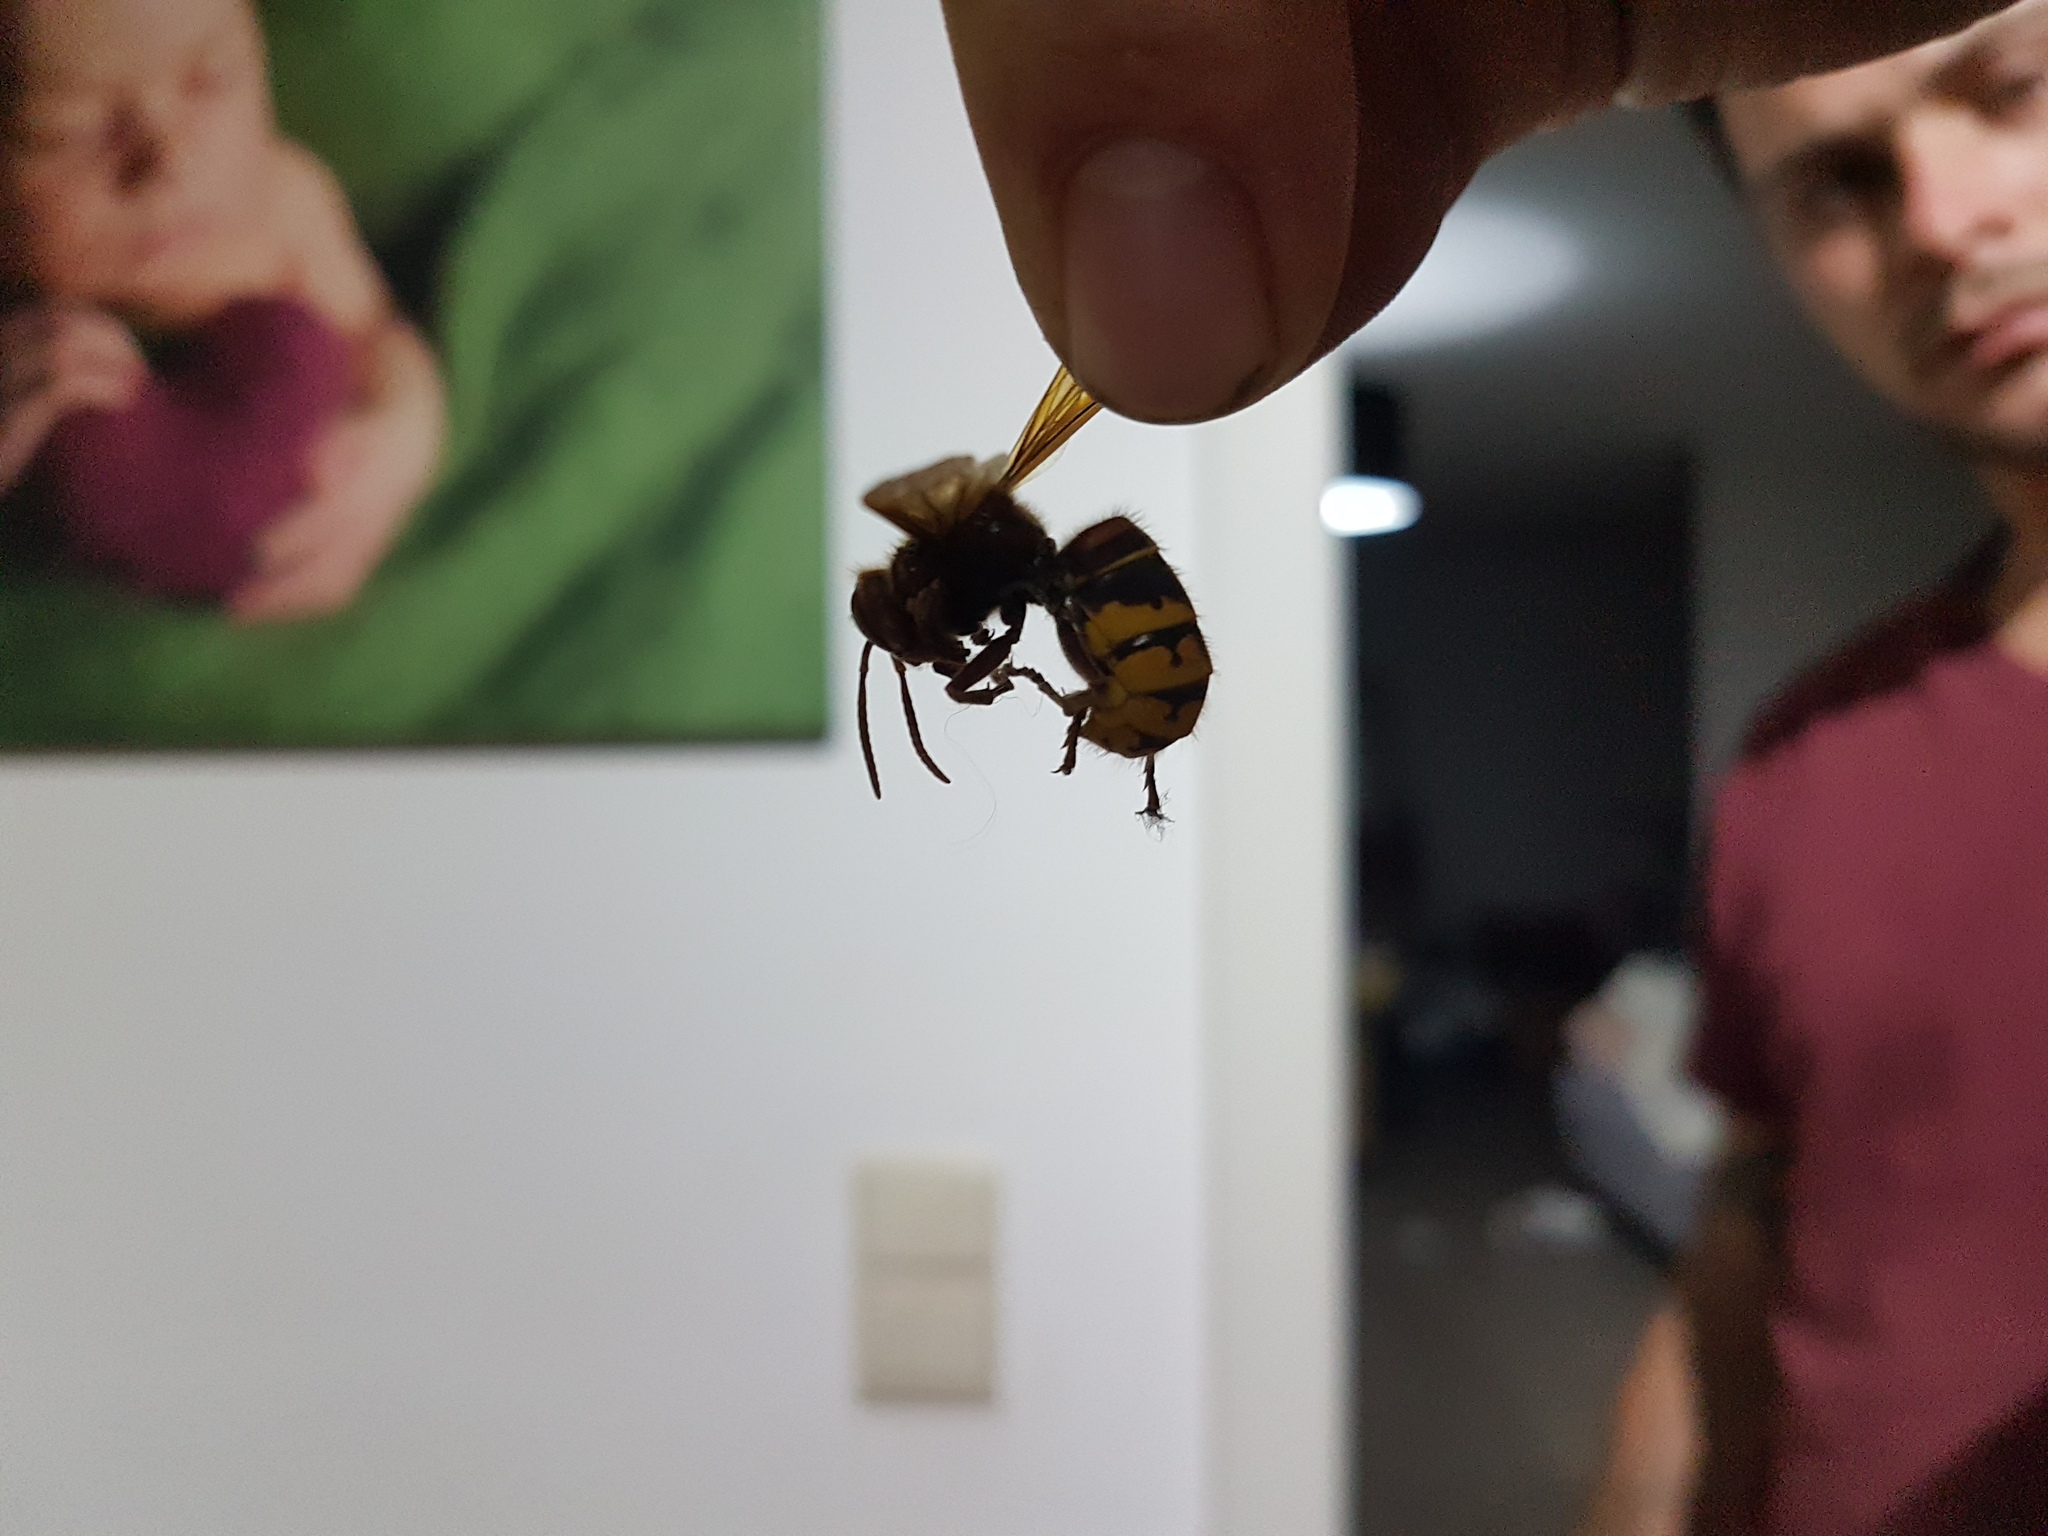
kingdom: Animalia
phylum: Arthropoda
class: Insecta
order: Hymenoptera
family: Vespidae
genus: Vespa
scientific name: Vespa crabro
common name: Hornet
